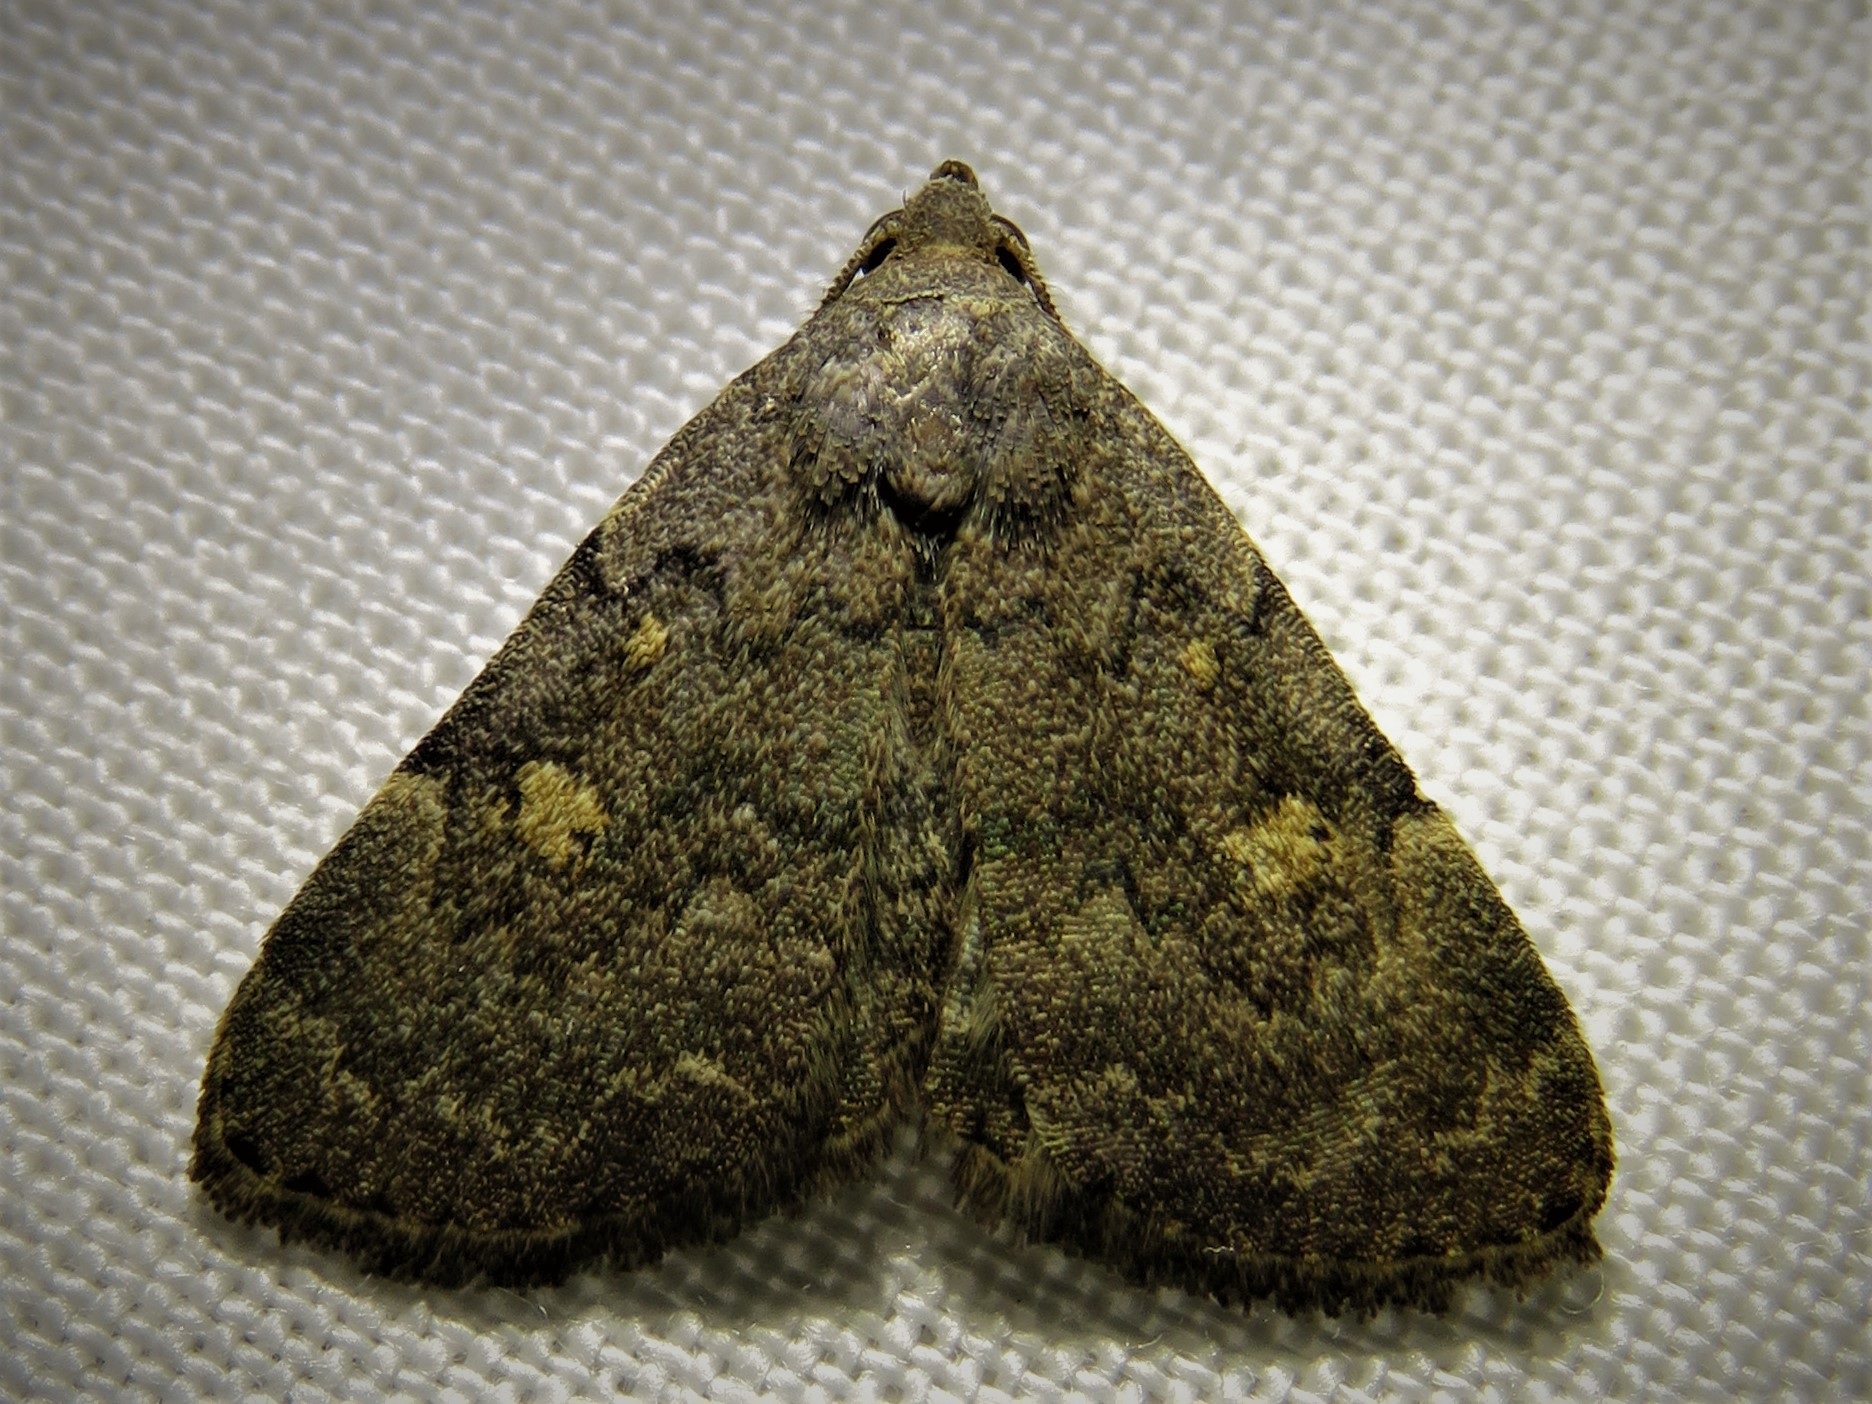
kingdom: Animalia
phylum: Arthropoda
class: Insecta
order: Lepidoptera
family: Erebidae
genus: Idia
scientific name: Idia aemula
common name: Common idia moth
